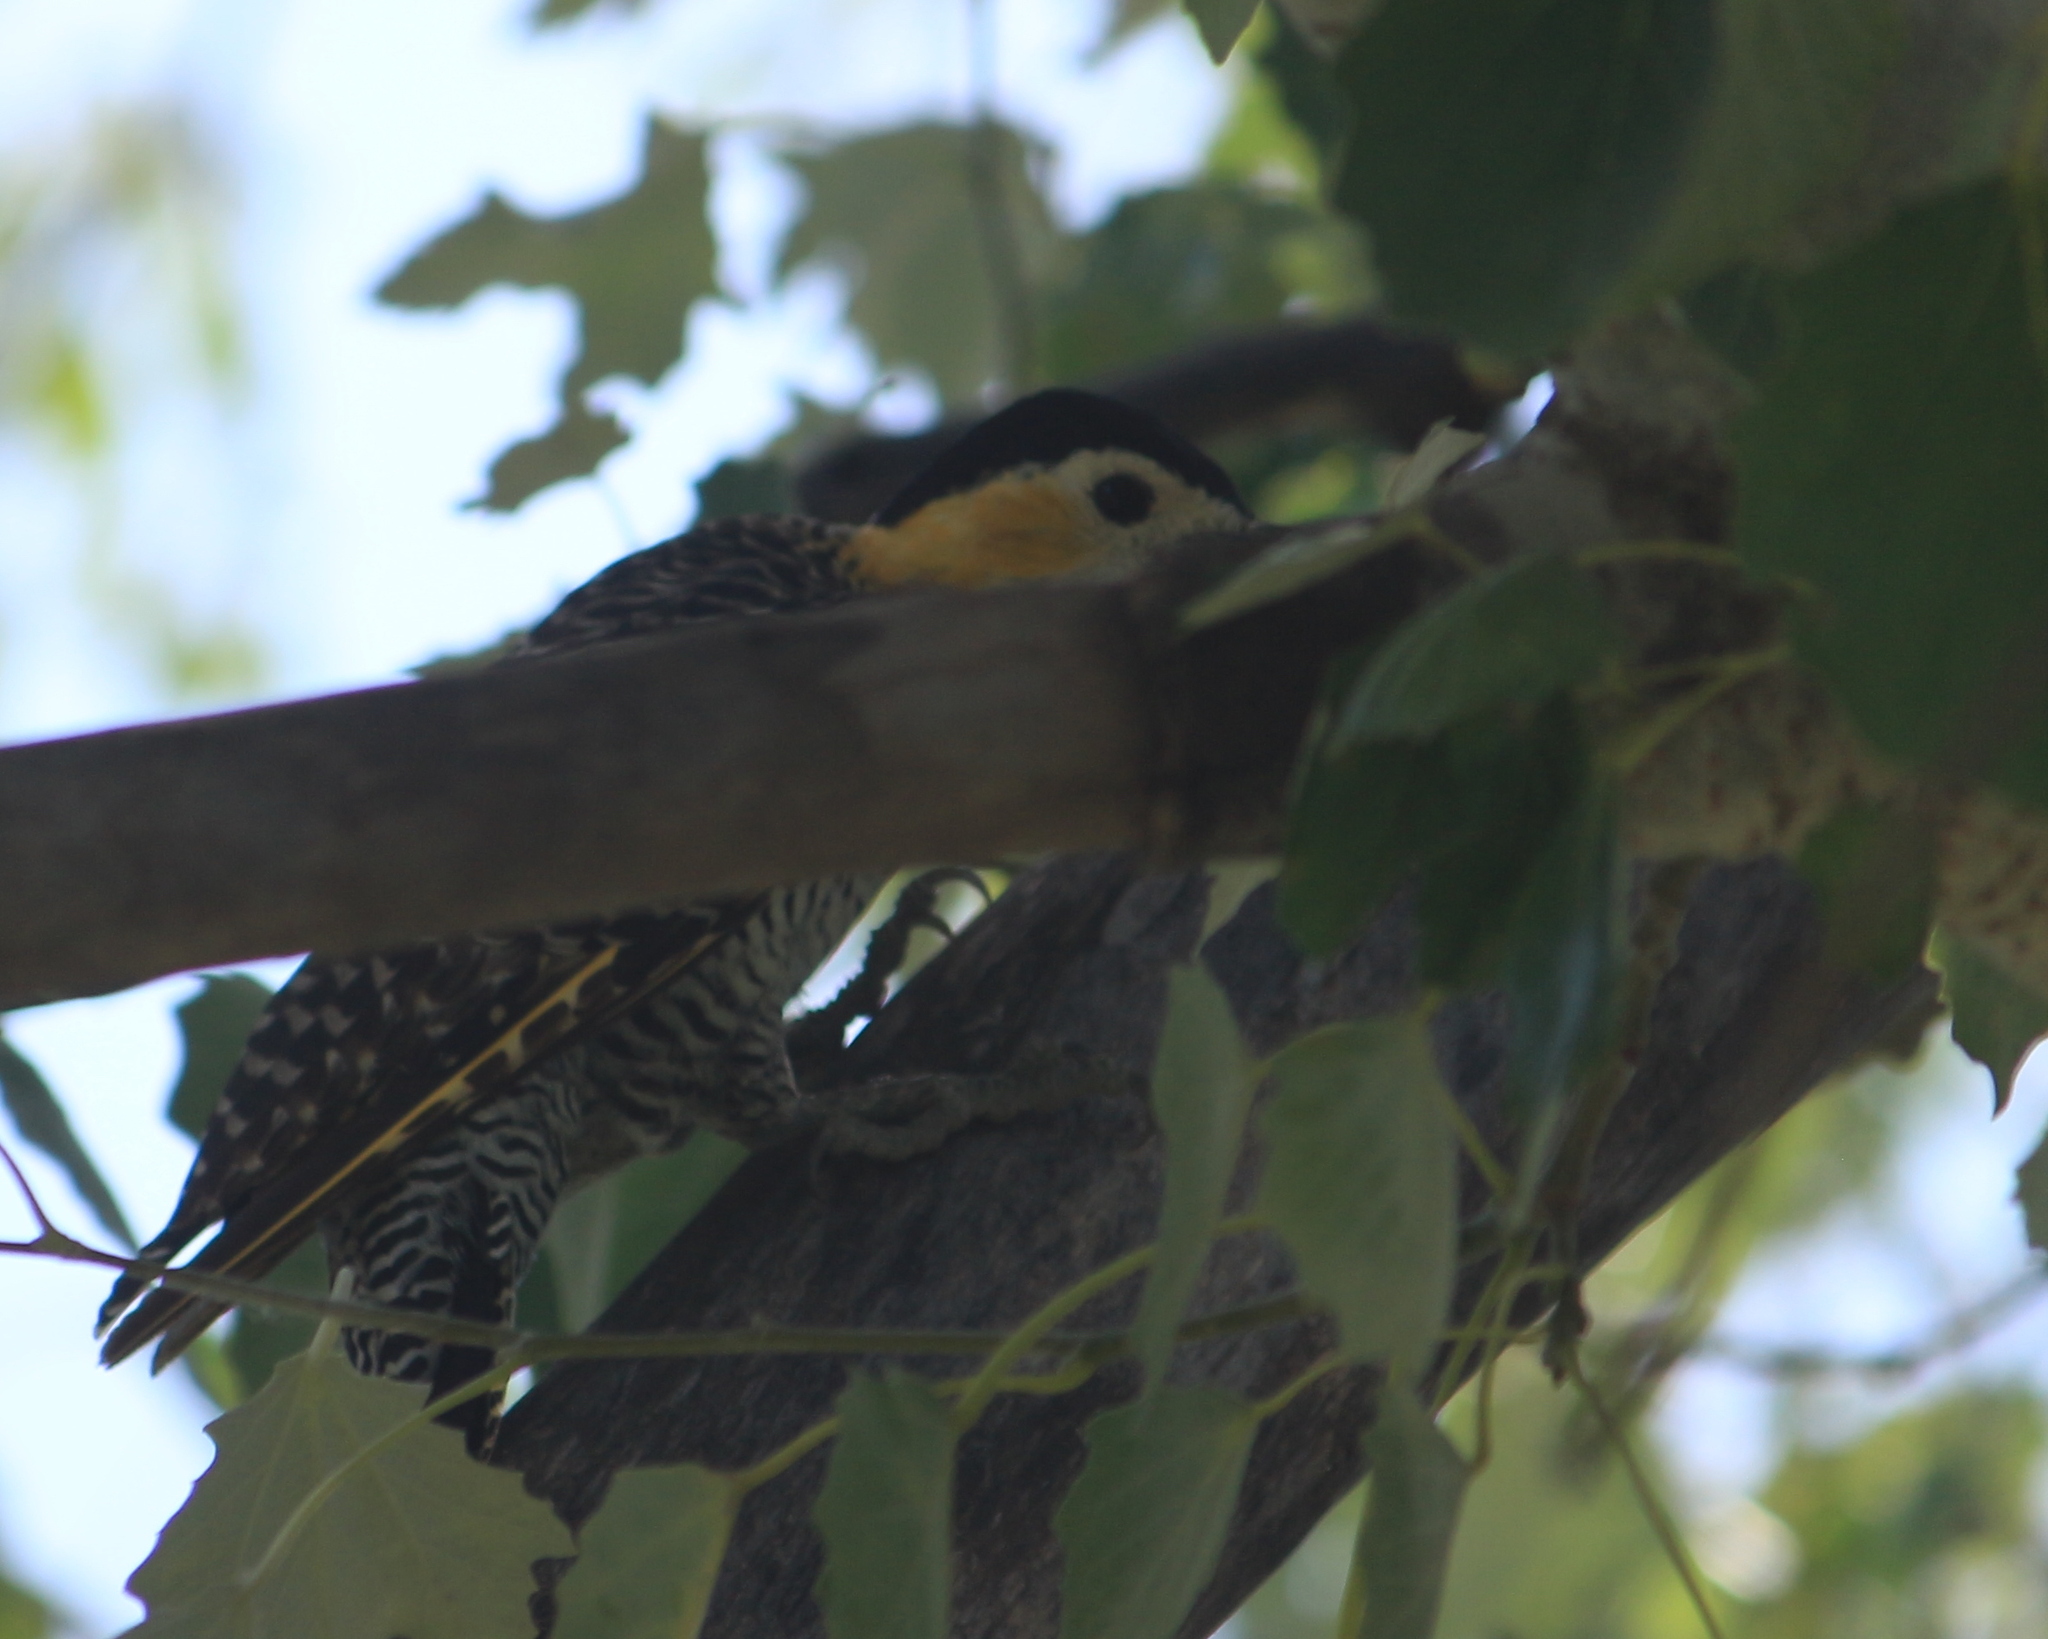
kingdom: Animalia
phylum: Chordata
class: Aves
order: Piciformes
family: Picidae
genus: Colaptes
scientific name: Colaptes campestris
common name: Campo flicker
